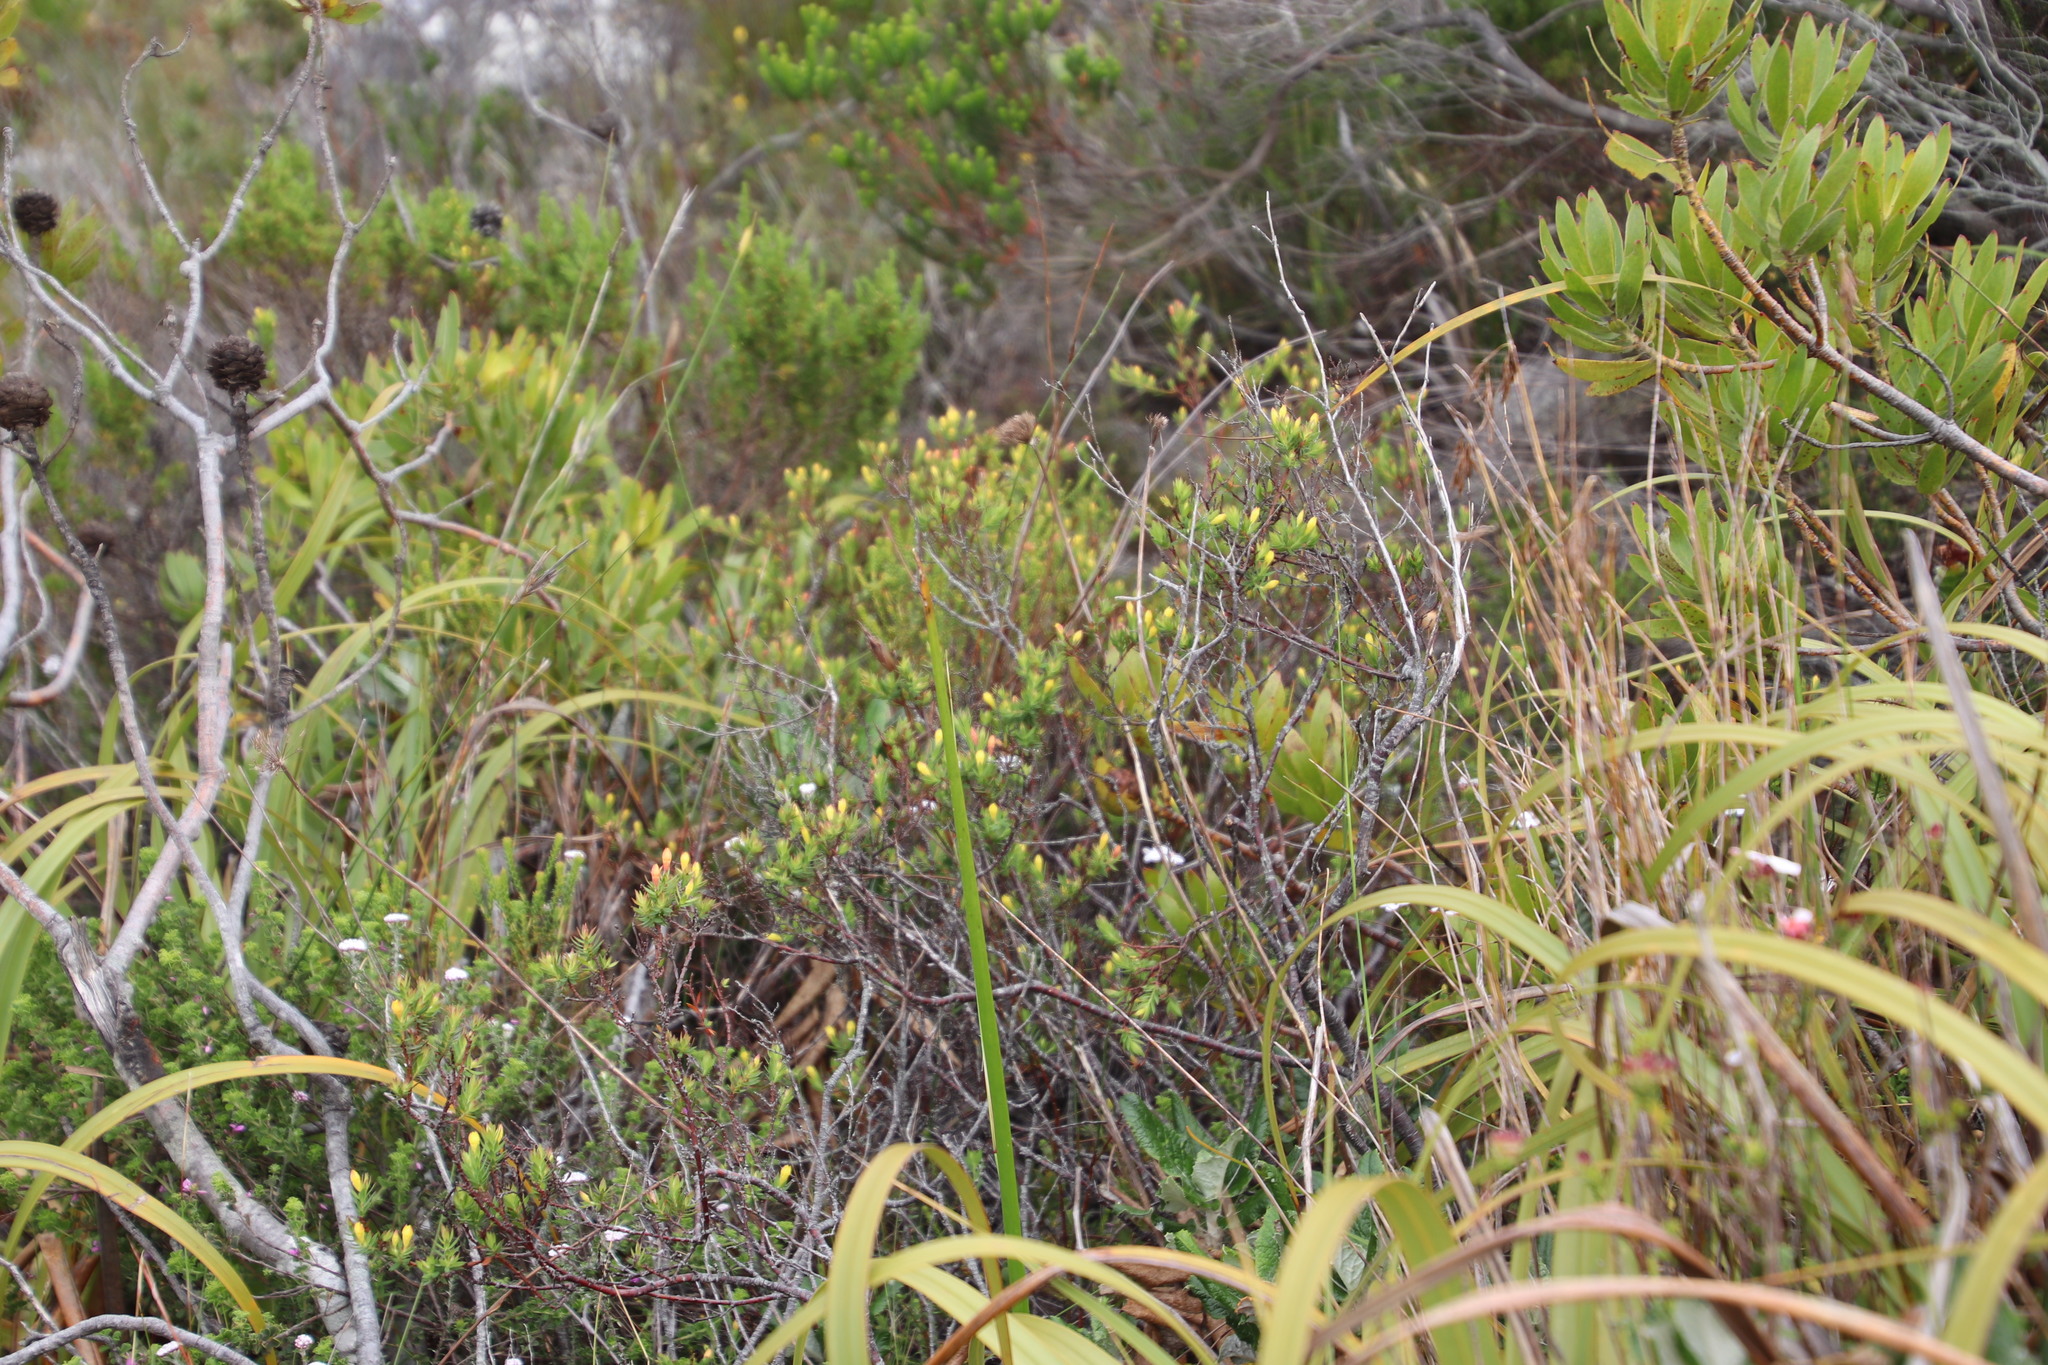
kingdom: Plantae
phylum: Tracheophyta
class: Magnoliopsida
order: Malvales
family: Thymelaeaceae
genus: Gnidia
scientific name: Gnidia juniperifolia
